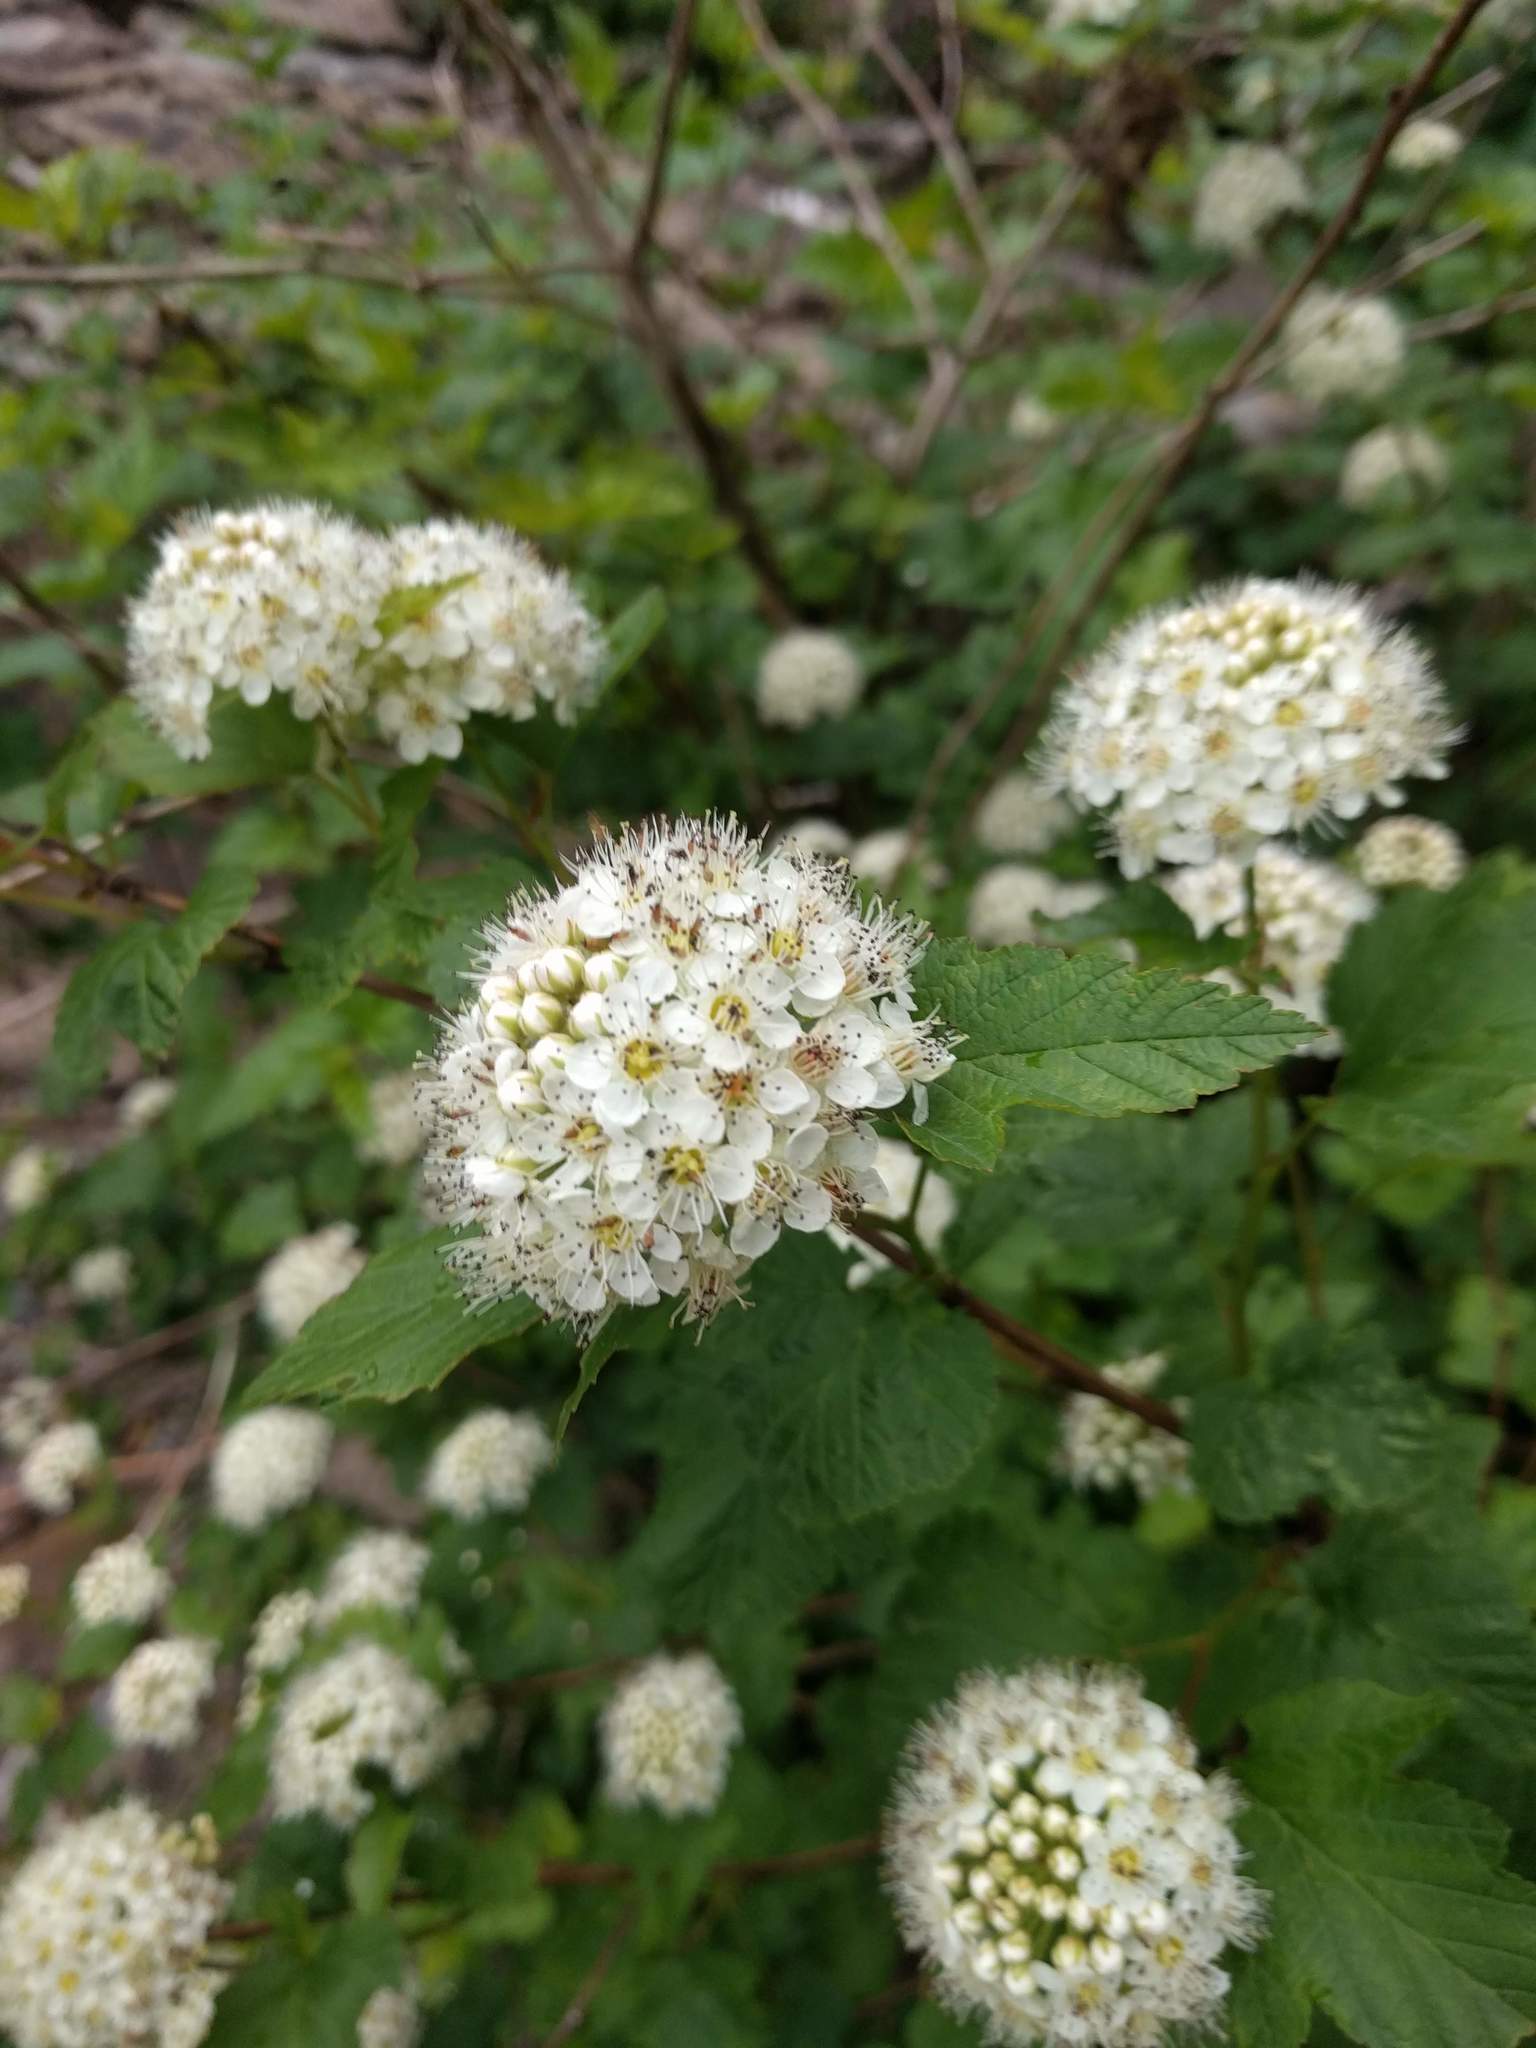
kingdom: Plantae
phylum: Tracheophyta
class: Magnoliopsida
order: Rosales
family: Rosaceae
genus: Physocarpus
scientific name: Physocarpus opulifolius
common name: Ninebark
